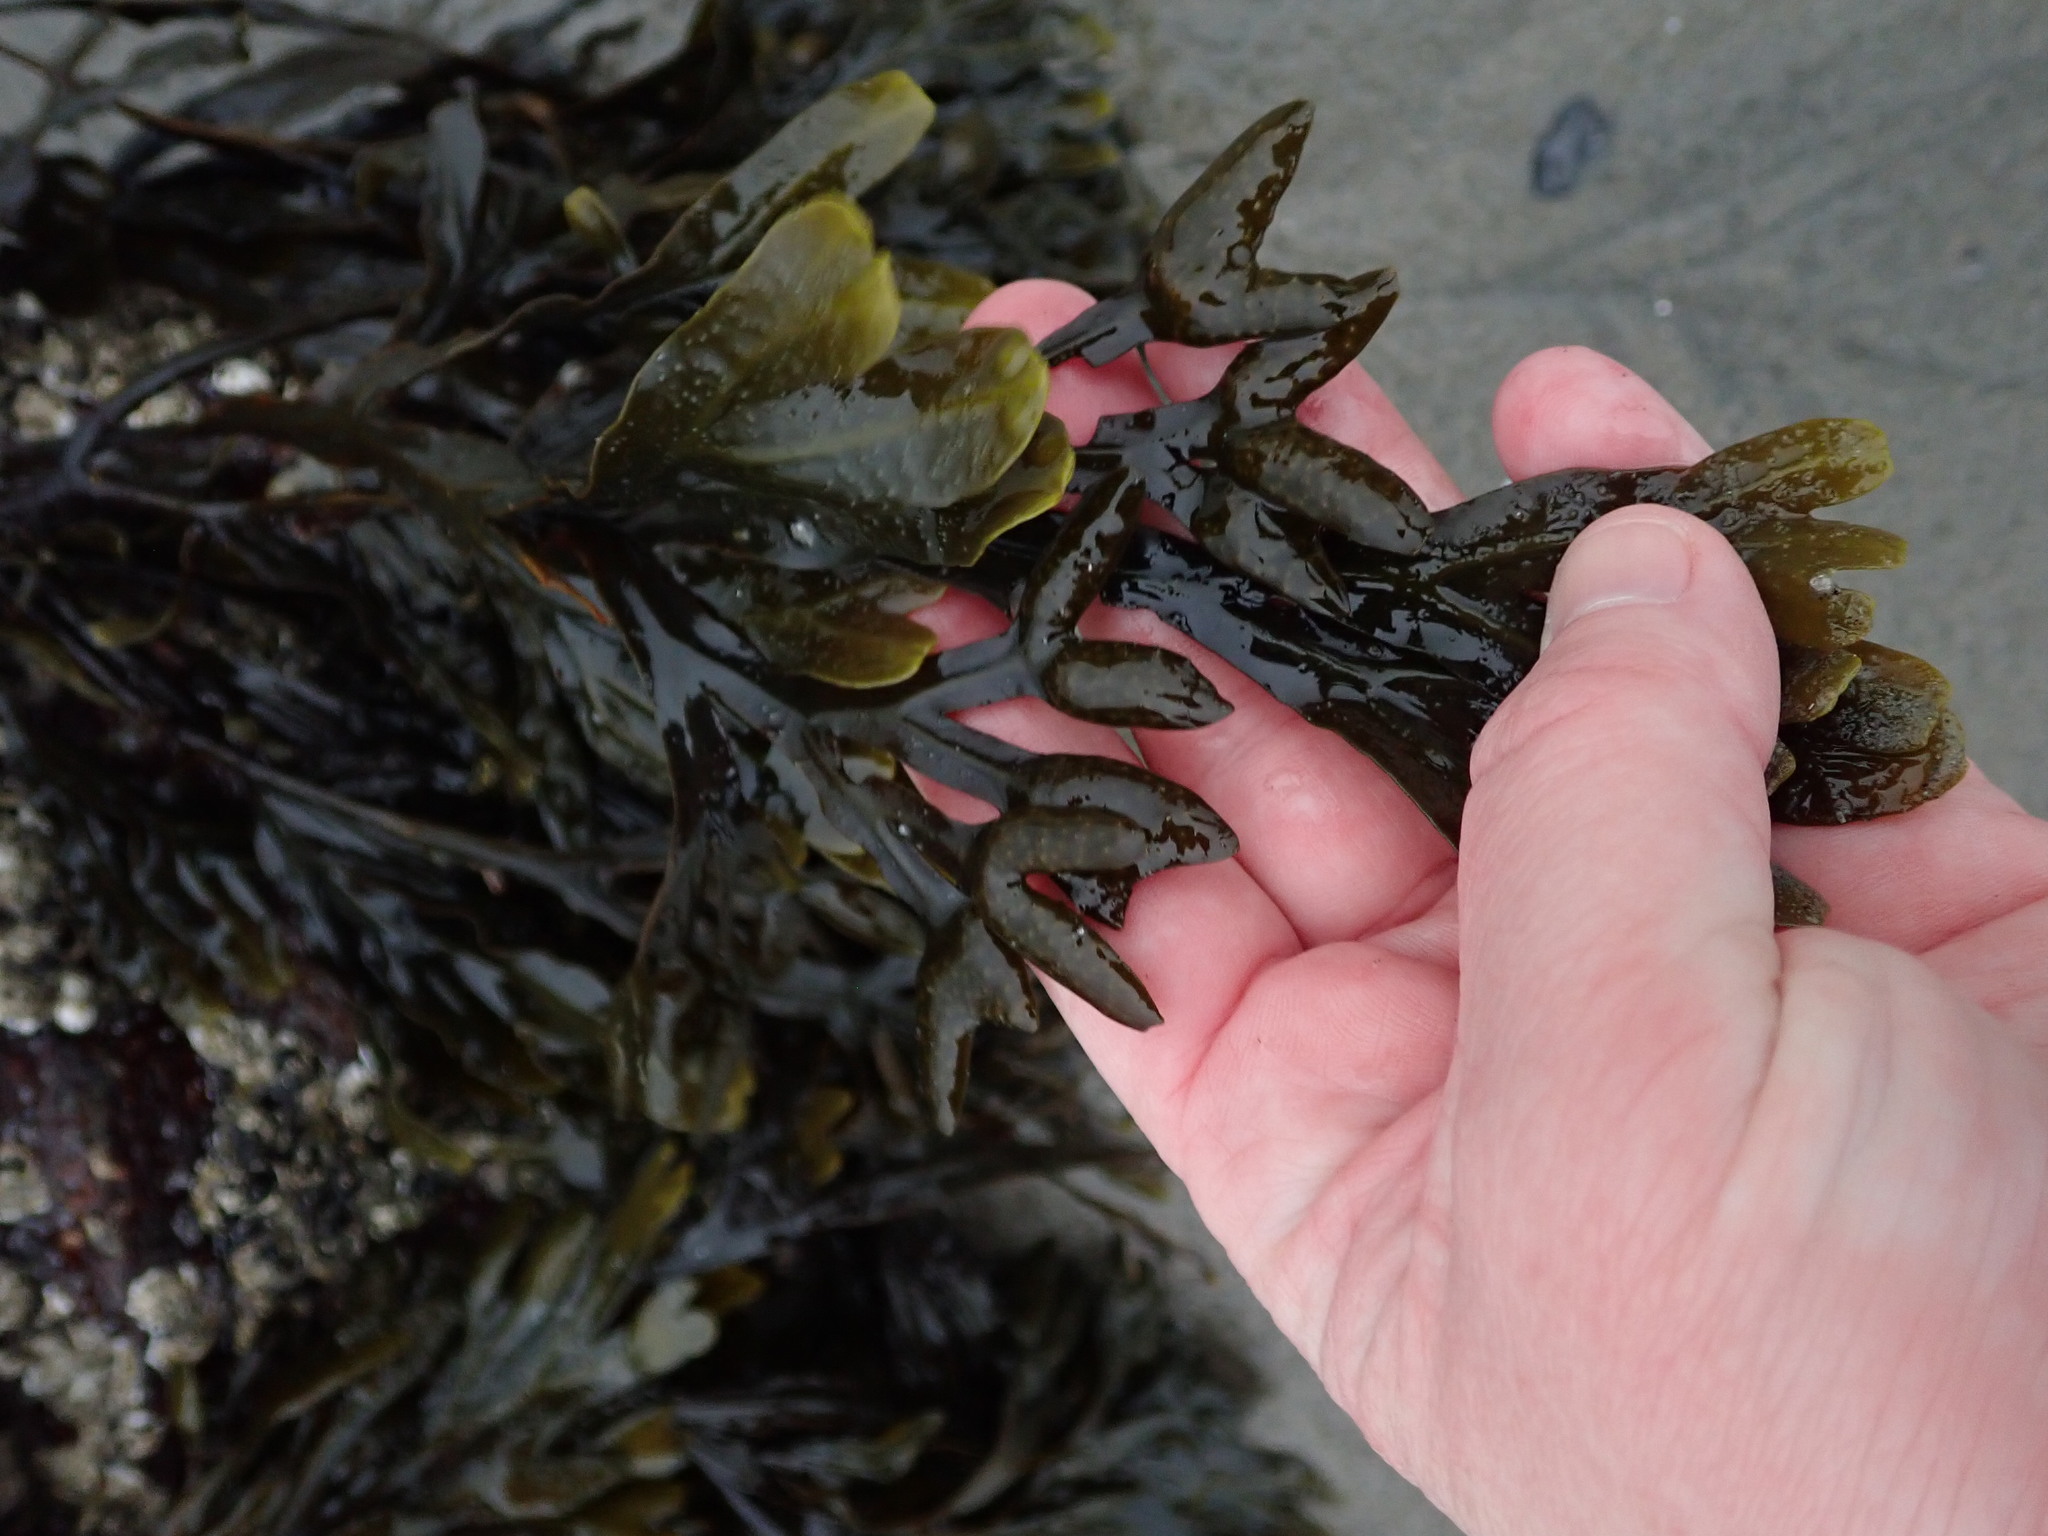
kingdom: Chromista
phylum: Ochrophyta
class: Phaeophyceae
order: Fucales
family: Fucaceae
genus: Fucus
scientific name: Fucus distichus
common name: Rockweed
